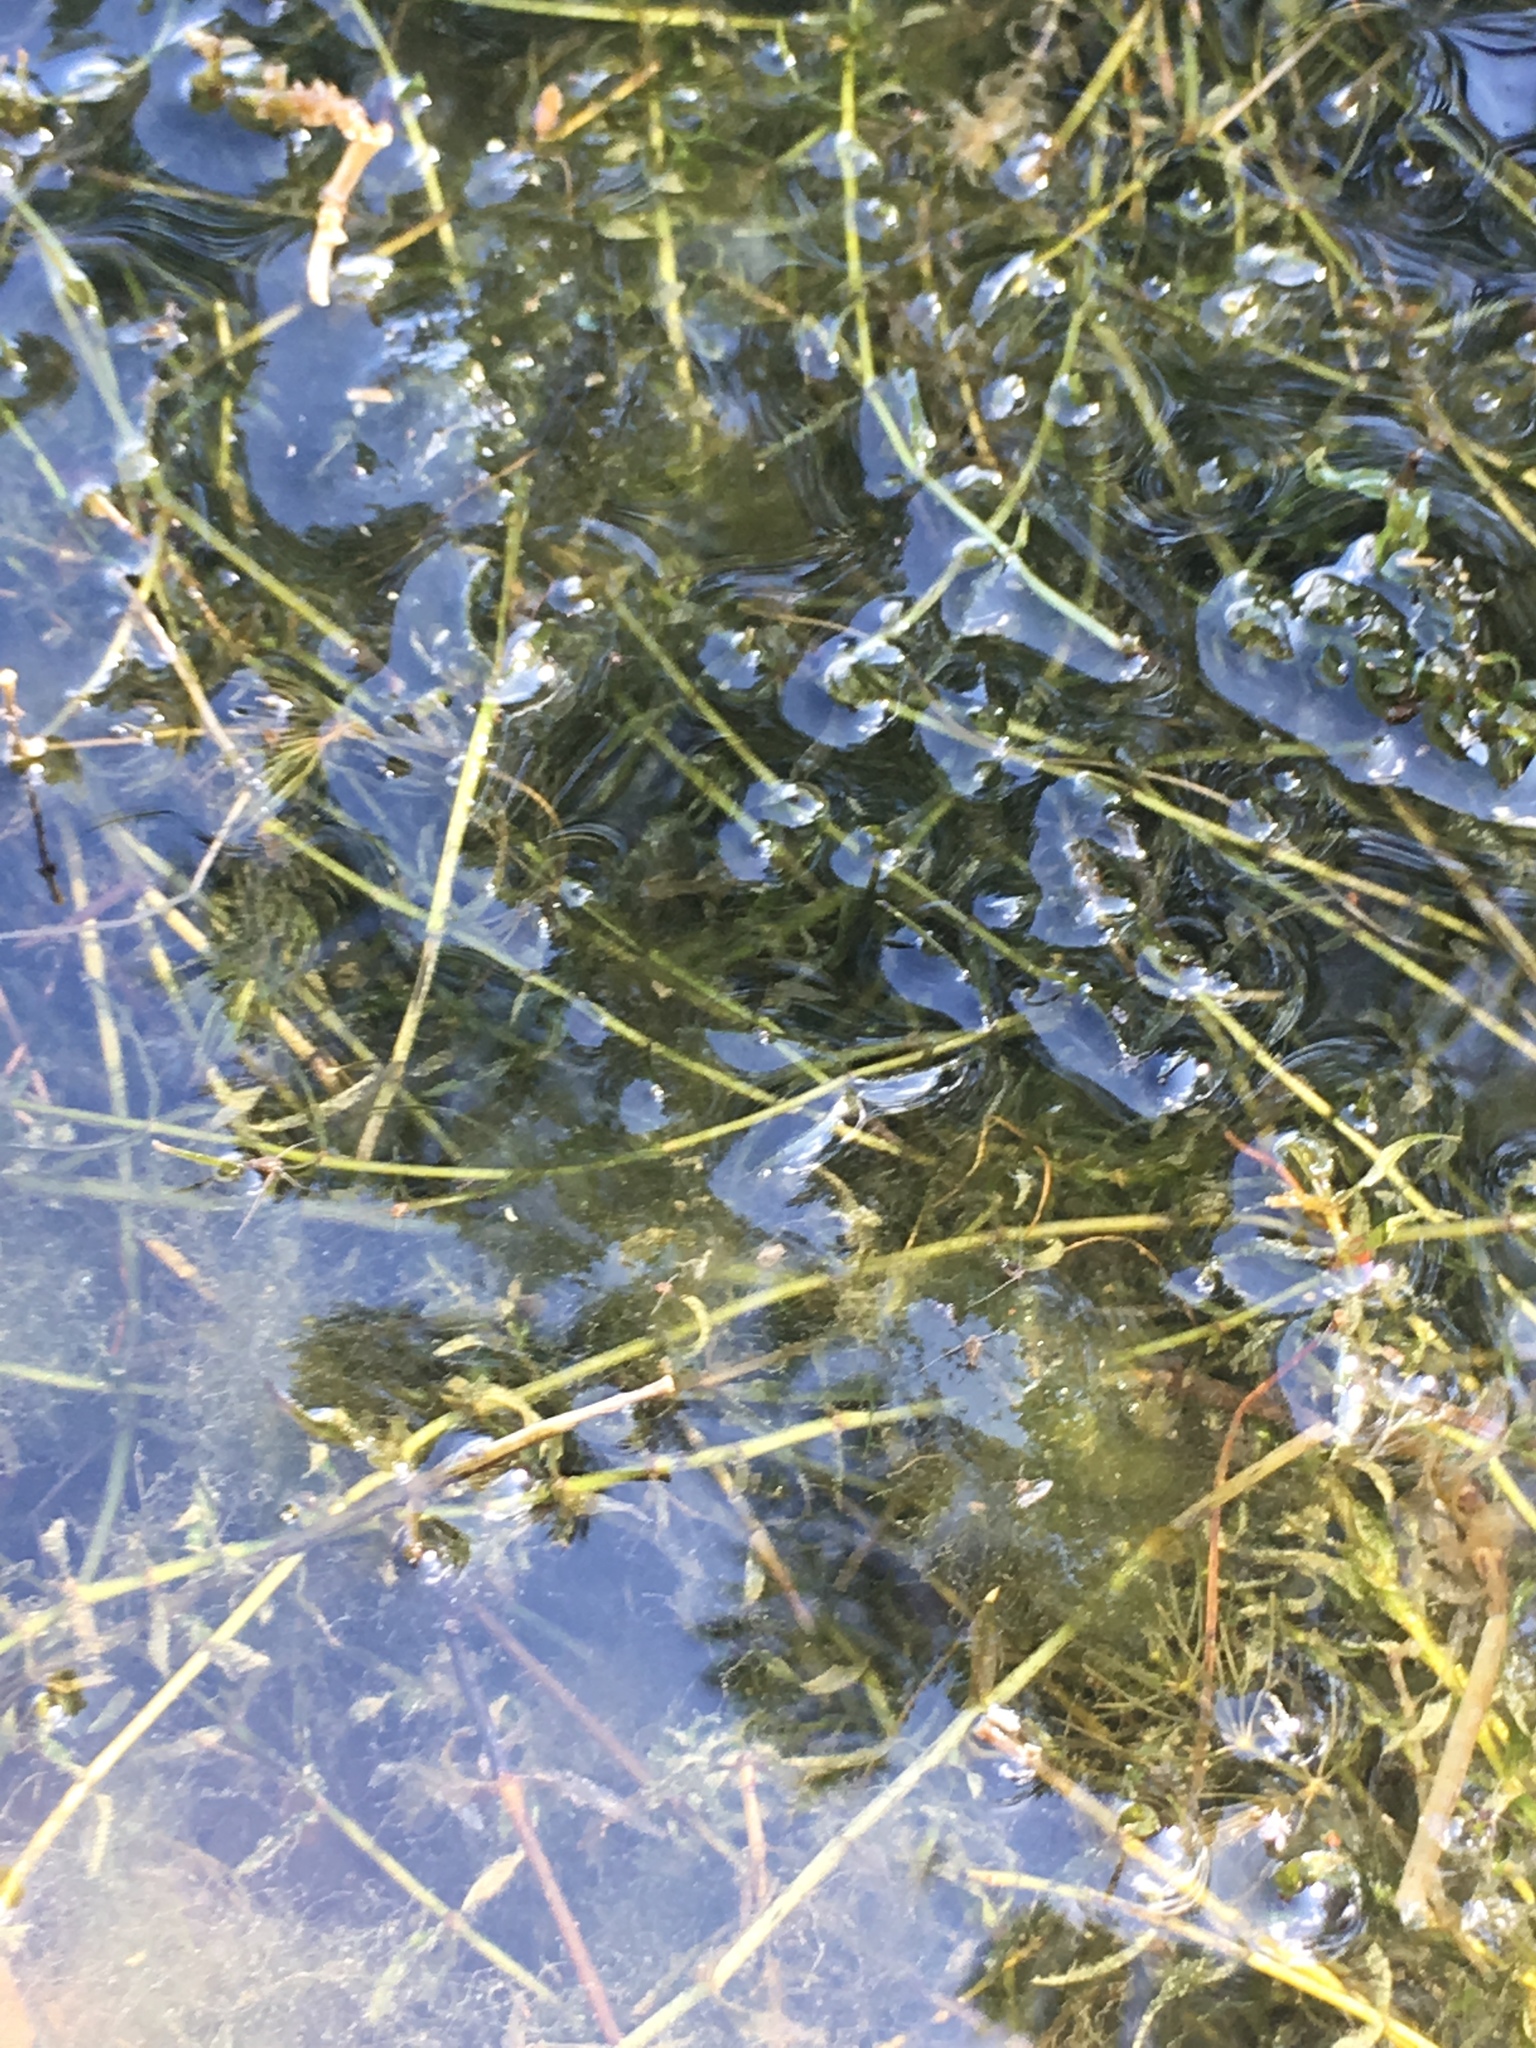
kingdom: Plantae
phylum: Tracheophyta
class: Magnoliopsida
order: Ceratophyllales
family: Ceratophyllaceae
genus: Ceratophyllum
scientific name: Ceratophyllum demersum
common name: Rigid hornwort
